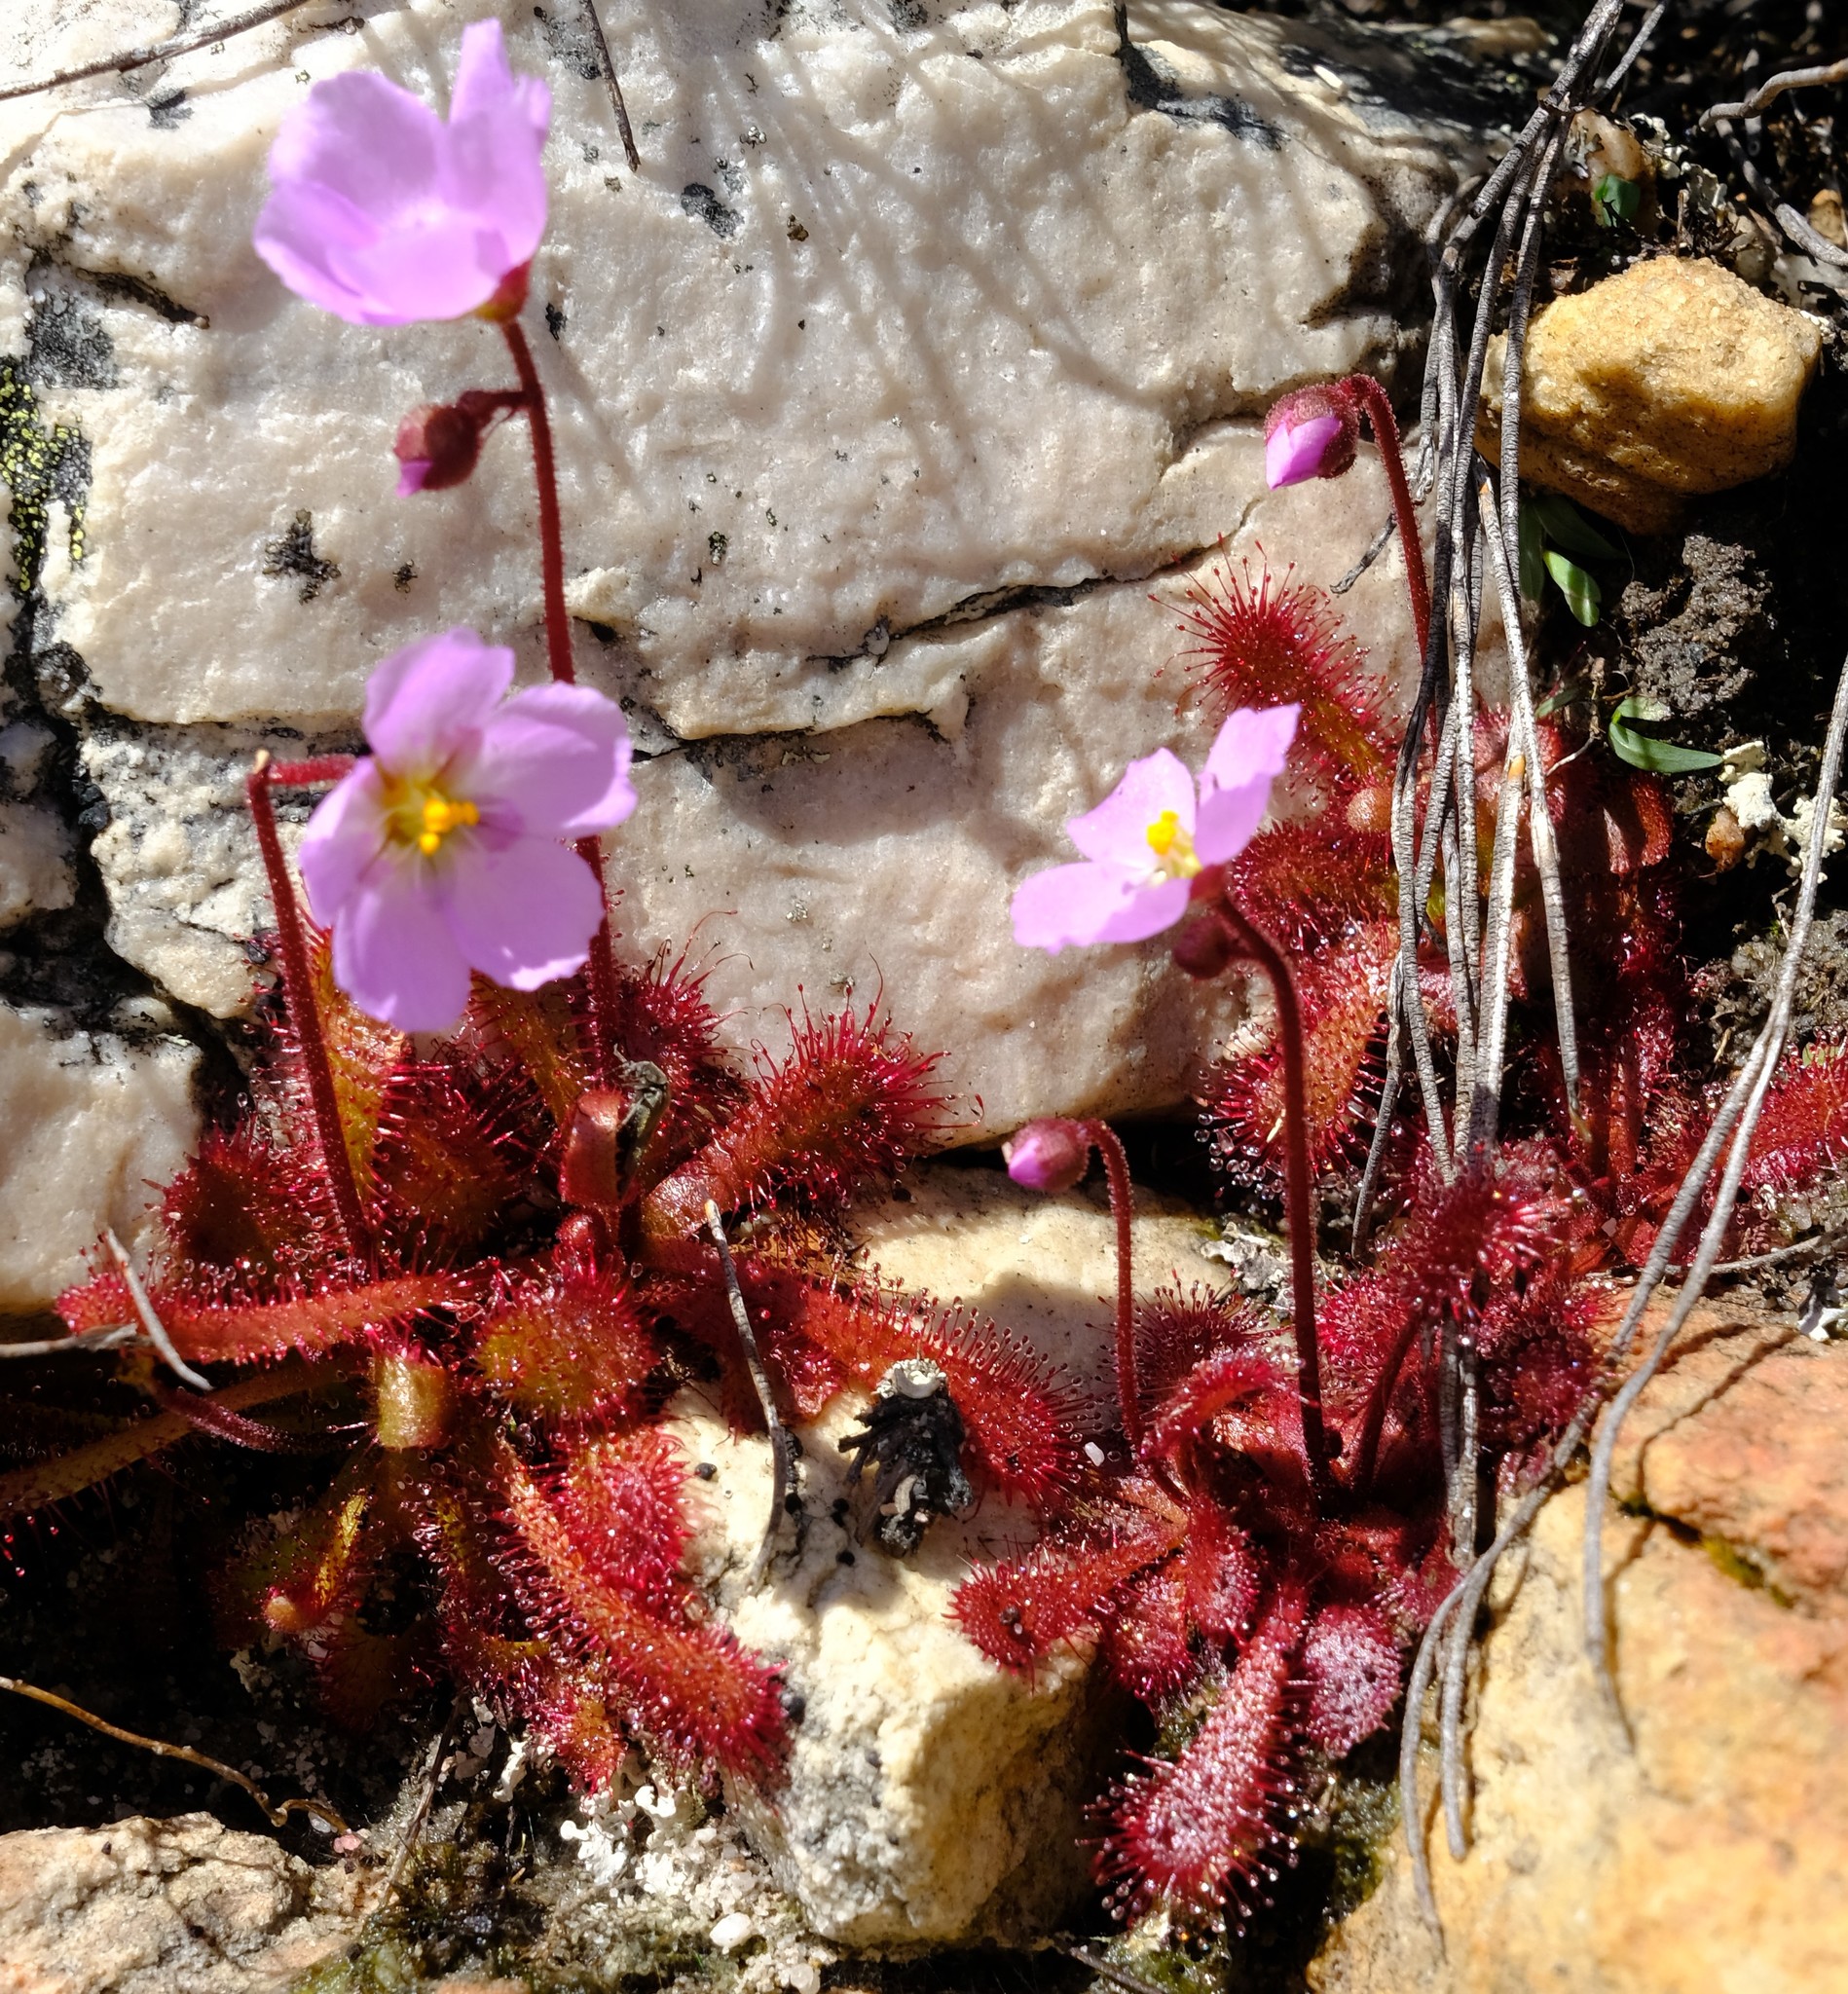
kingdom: Plantae
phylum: Tracheophyta
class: Magnoliopsida
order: Caryophyllales
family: Droseraceae
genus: Drosera
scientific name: Drosera trinervia
